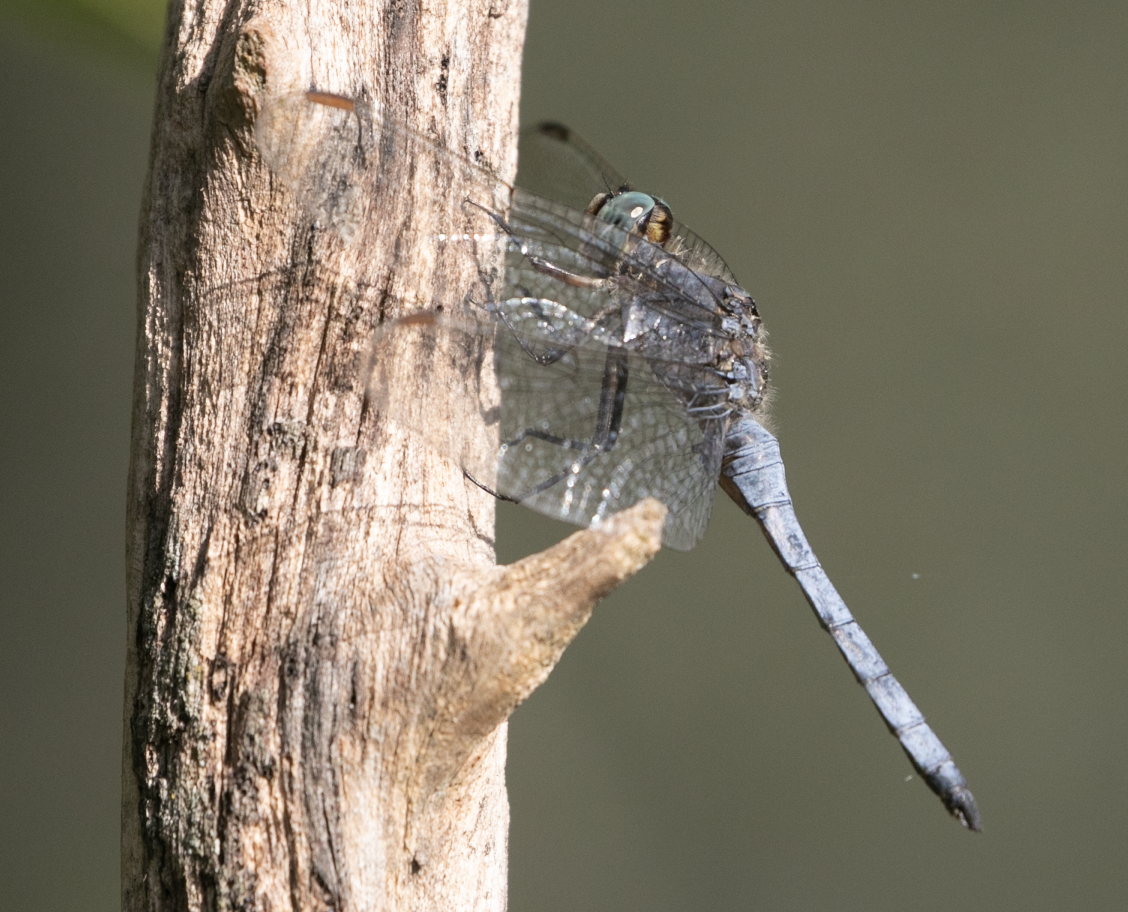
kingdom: Animalia
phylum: Arthropoda
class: Insecta
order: Odonata
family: Libellulidae
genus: Orthetrum
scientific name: Orthetrum coerulescens
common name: Keeled skimmer
